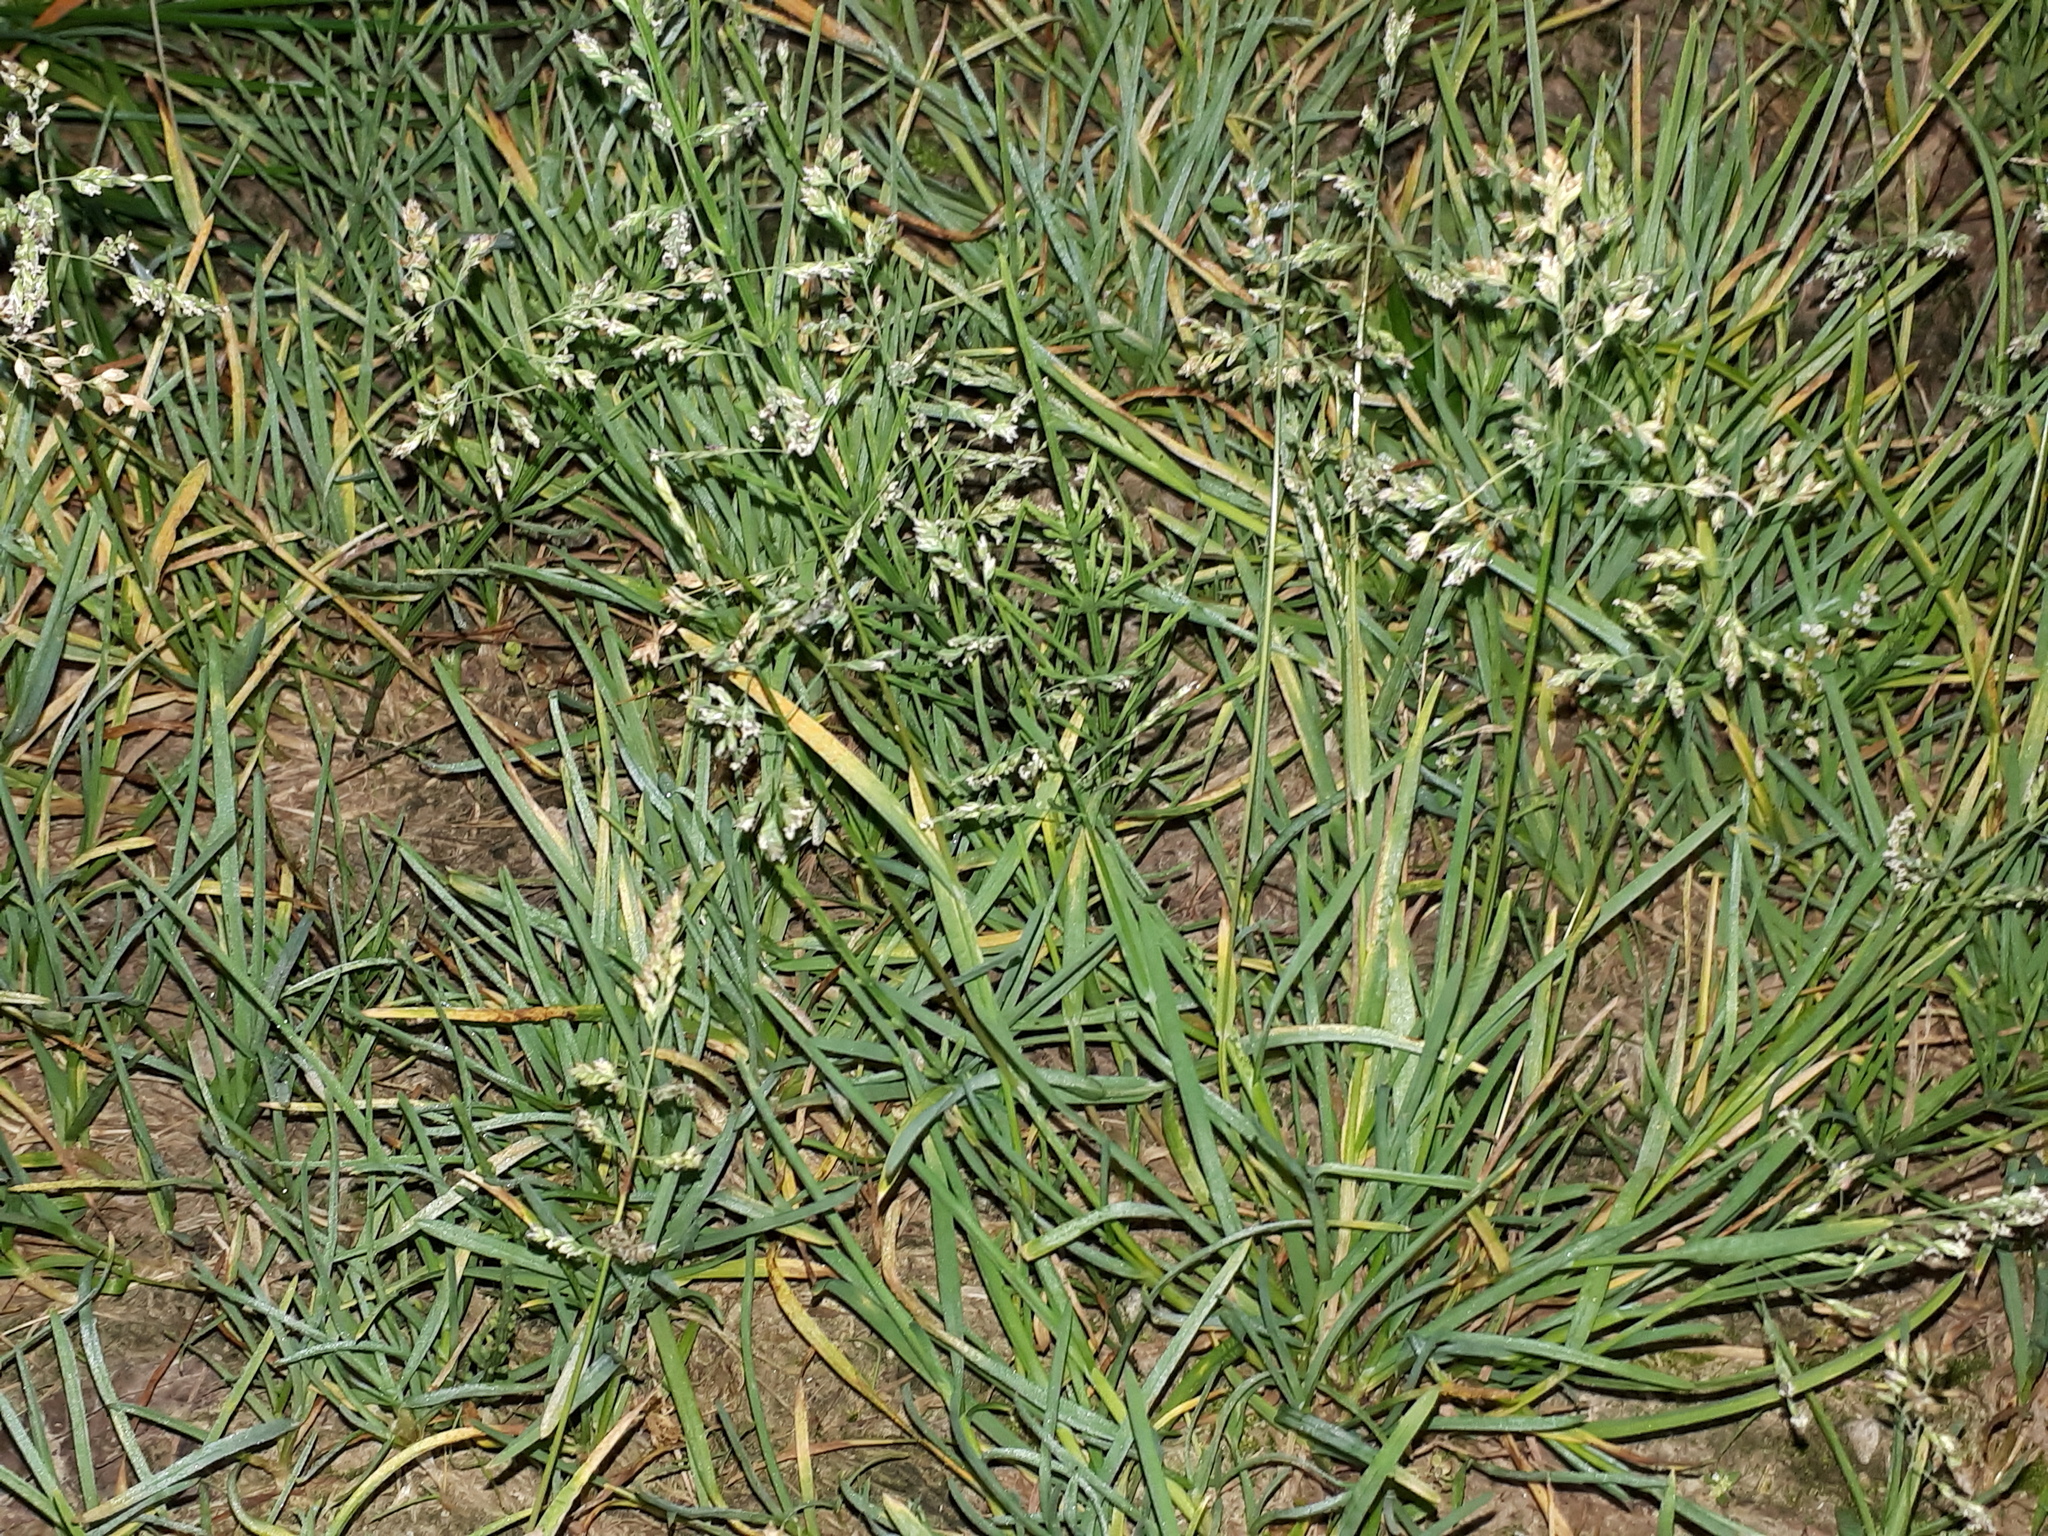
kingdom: Plantae
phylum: Tracheophyta
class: Liliopsida
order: Poales
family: Poaceae
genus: Poa
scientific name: Poa annua
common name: Annual bluegrass
